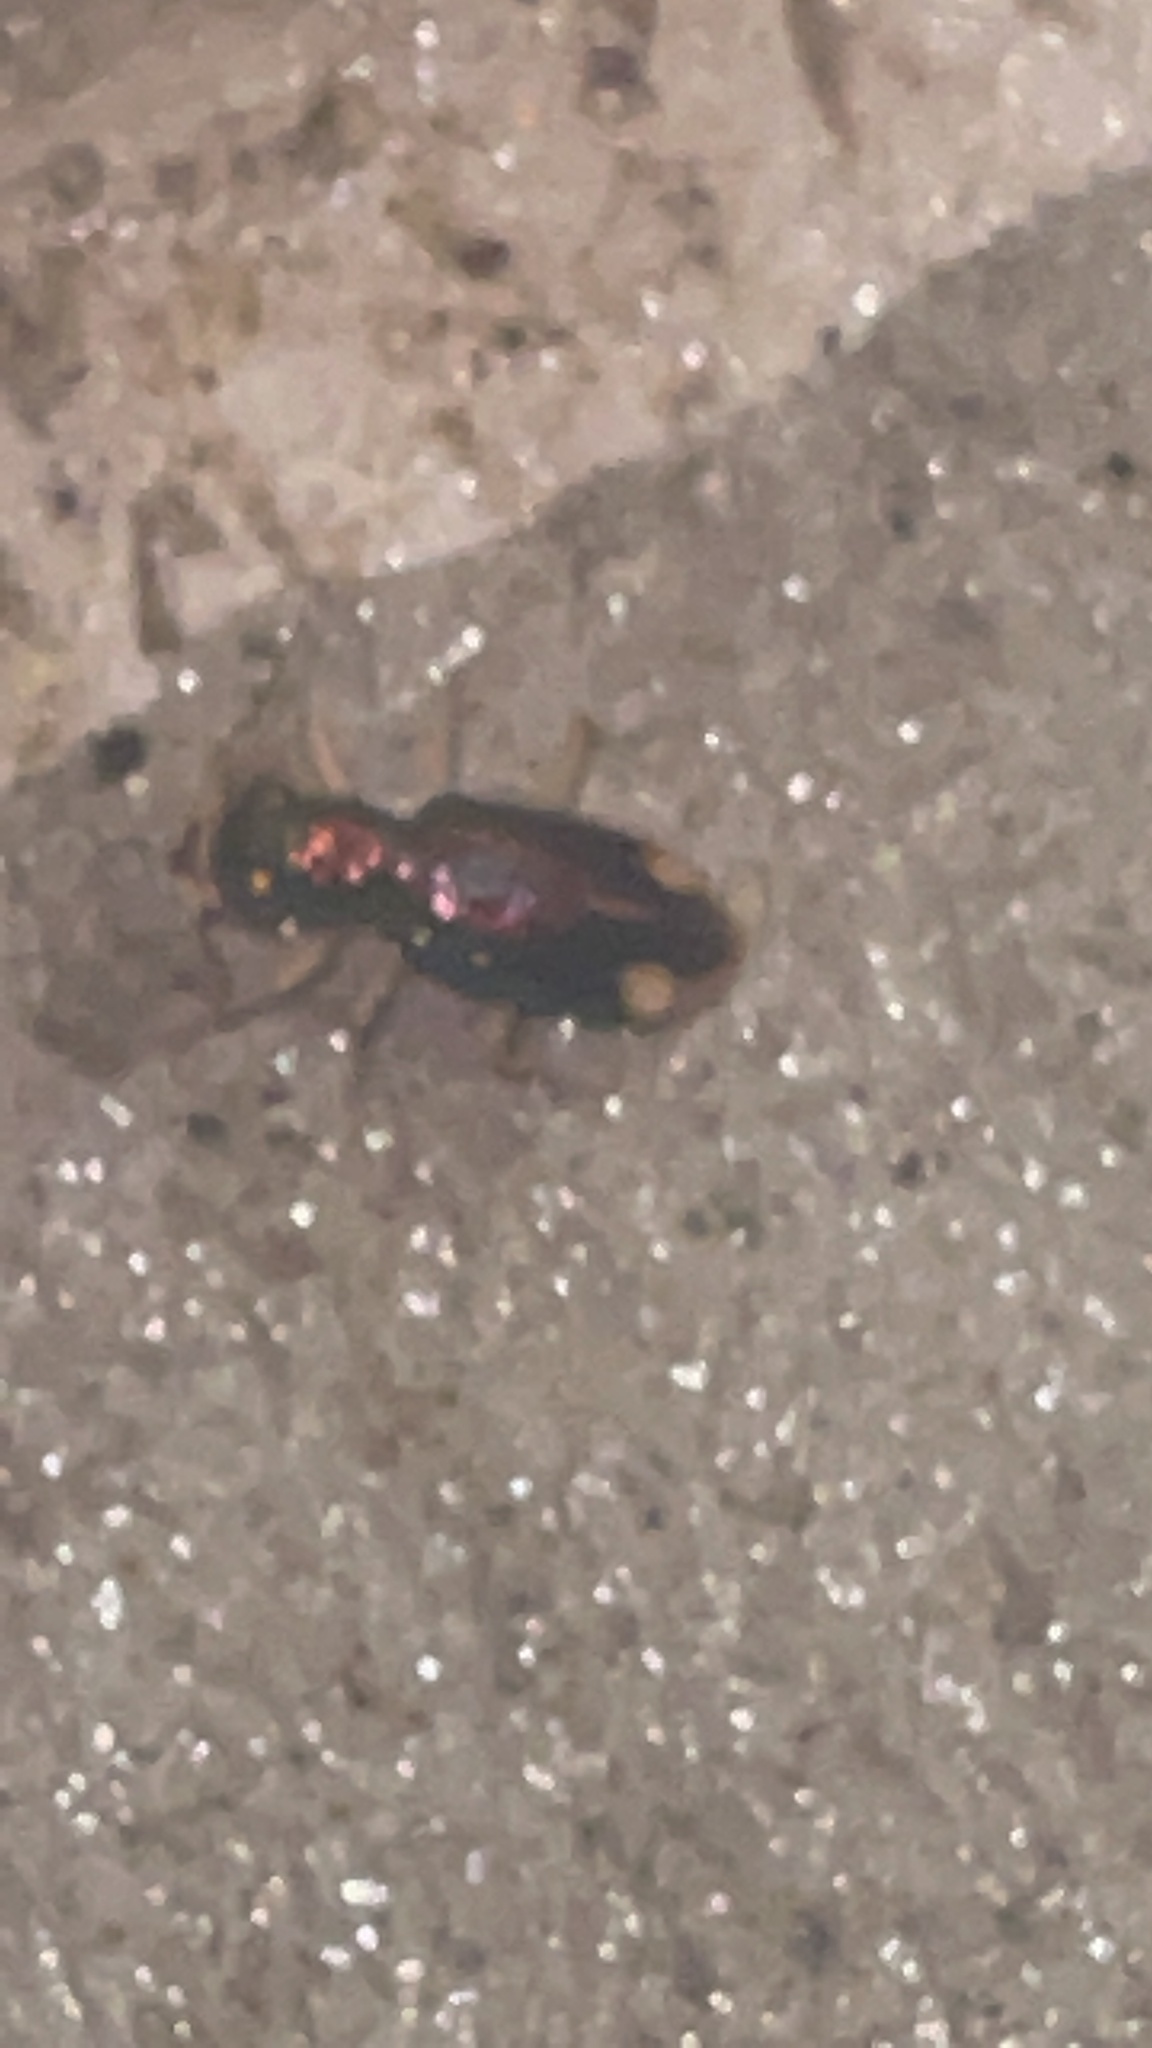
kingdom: Animalia
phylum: Arthropoda
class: Insecta
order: Coleoptera
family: Carabidae
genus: Tetracha
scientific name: Tetracha carolina
